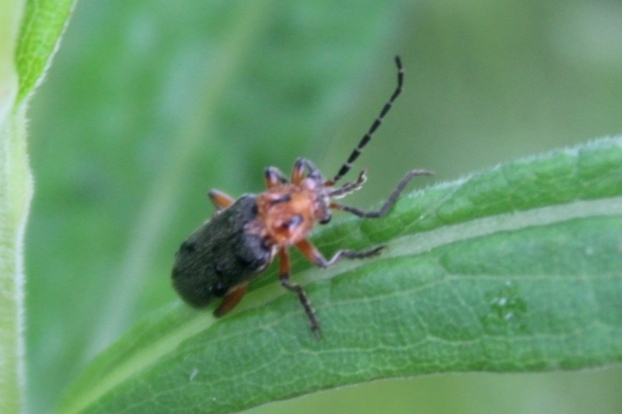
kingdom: Animalia
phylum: Arthropoda
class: Insecta
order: Coleoptera
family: Cantharidae
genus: Atalantycha
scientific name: Atalantycha bilineata
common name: Two-lined leatherwing
